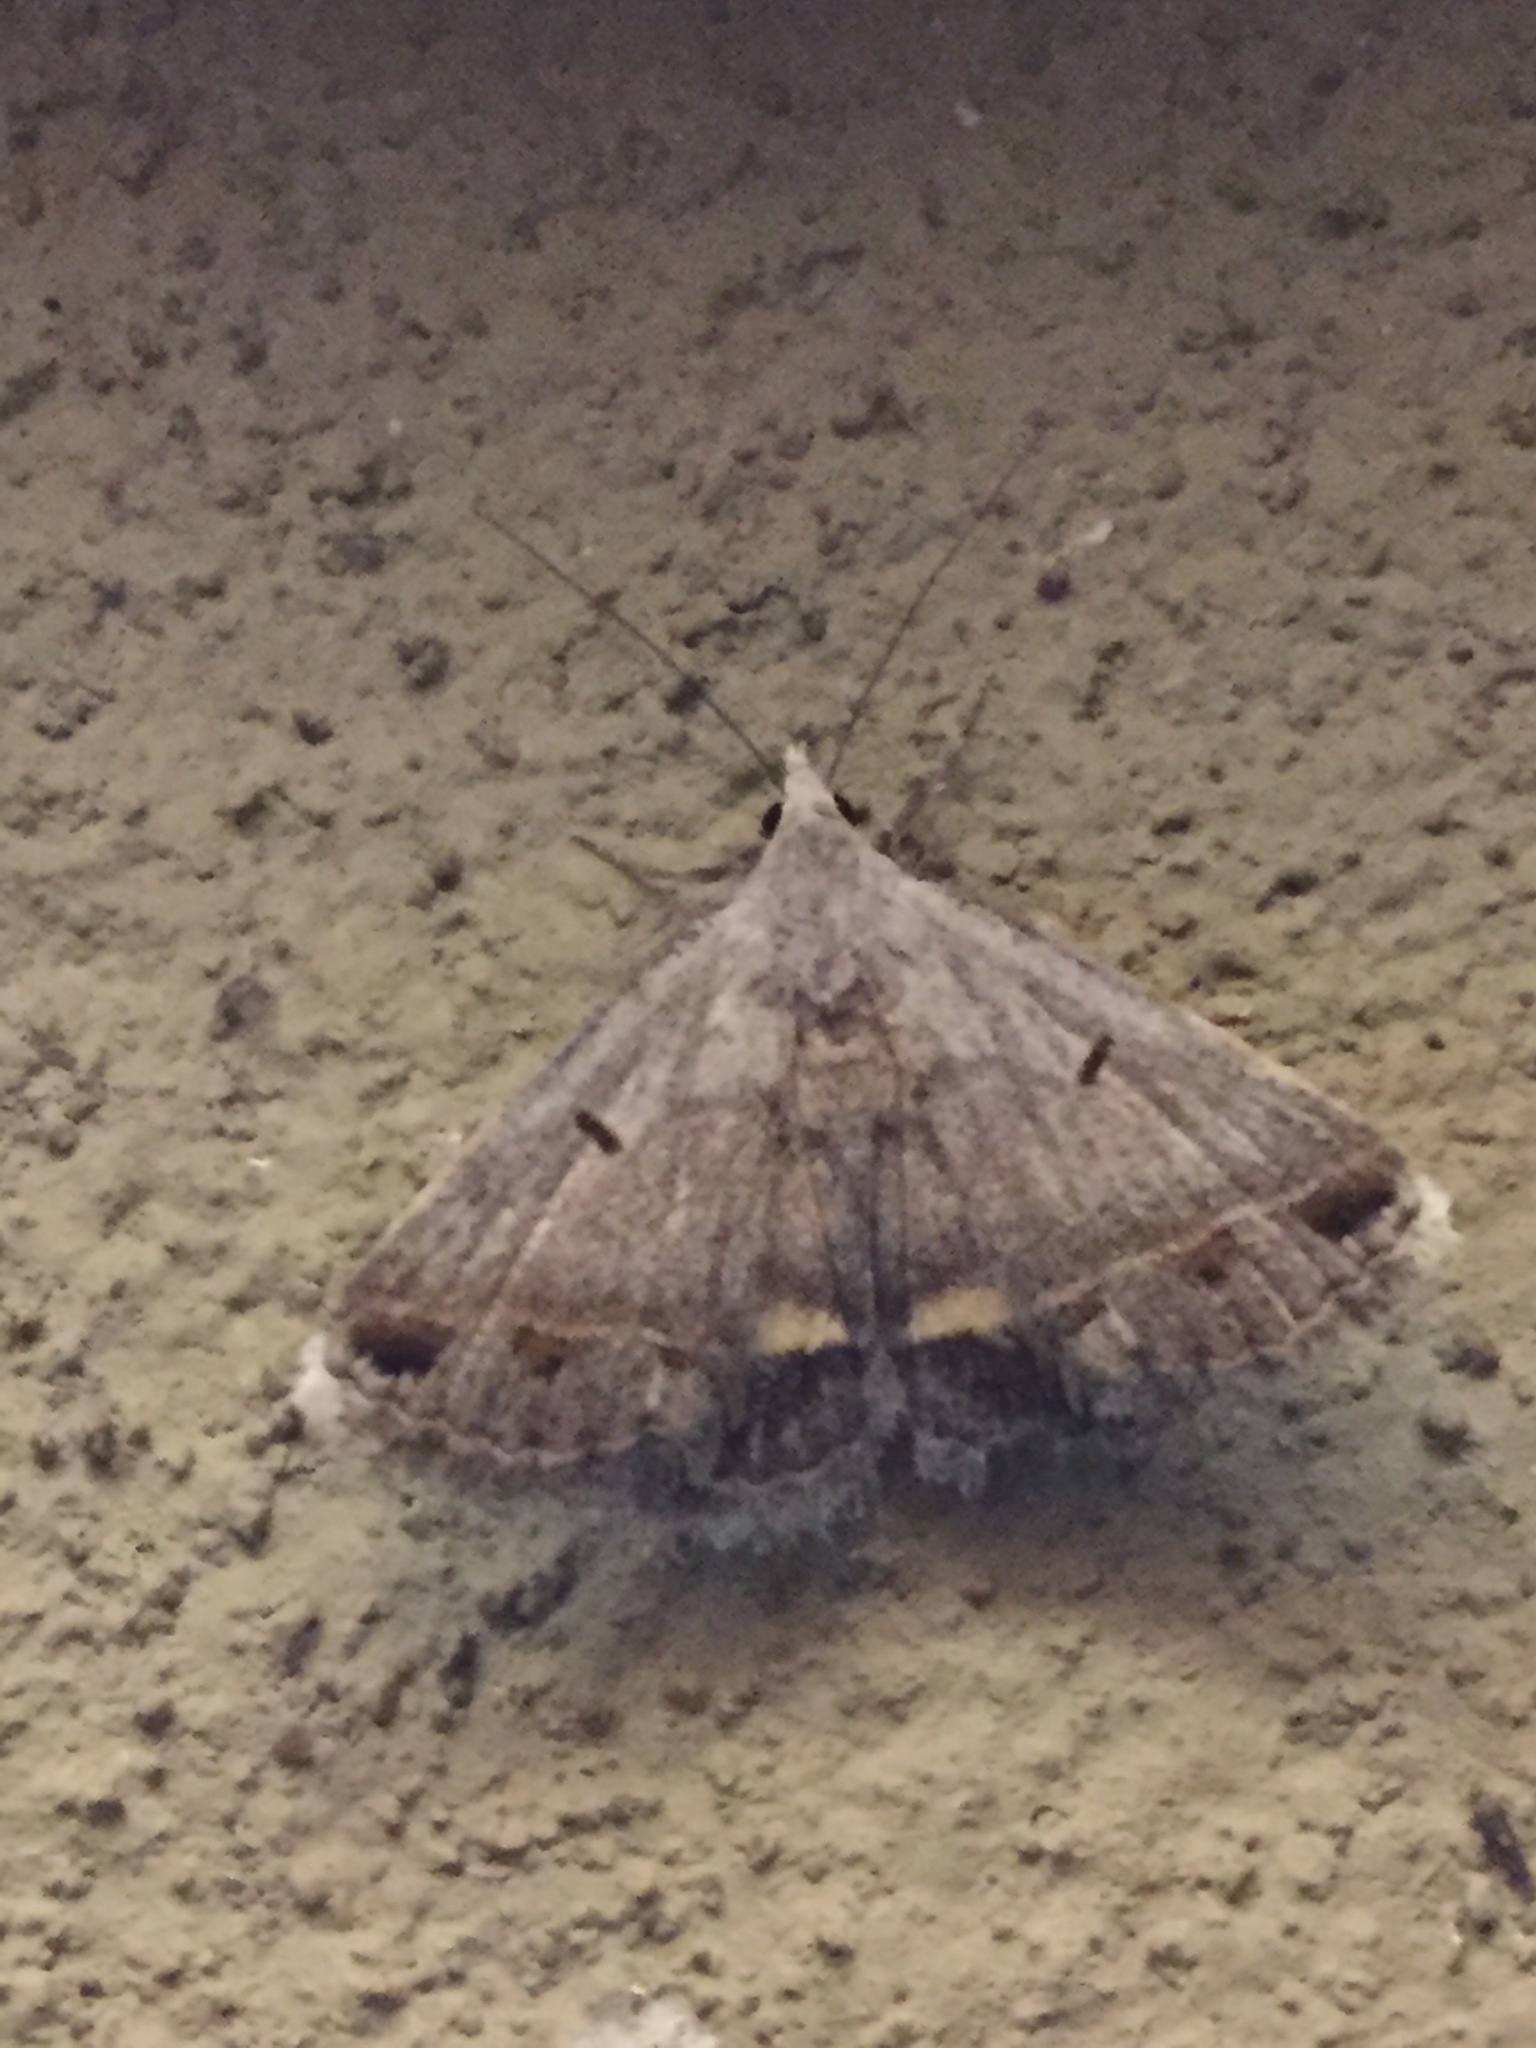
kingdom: Animalia
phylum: Arthropoda
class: Insecta
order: Lepidoptera
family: Erebidae
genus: Acantholipes
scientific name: Acantholipes trimeni
